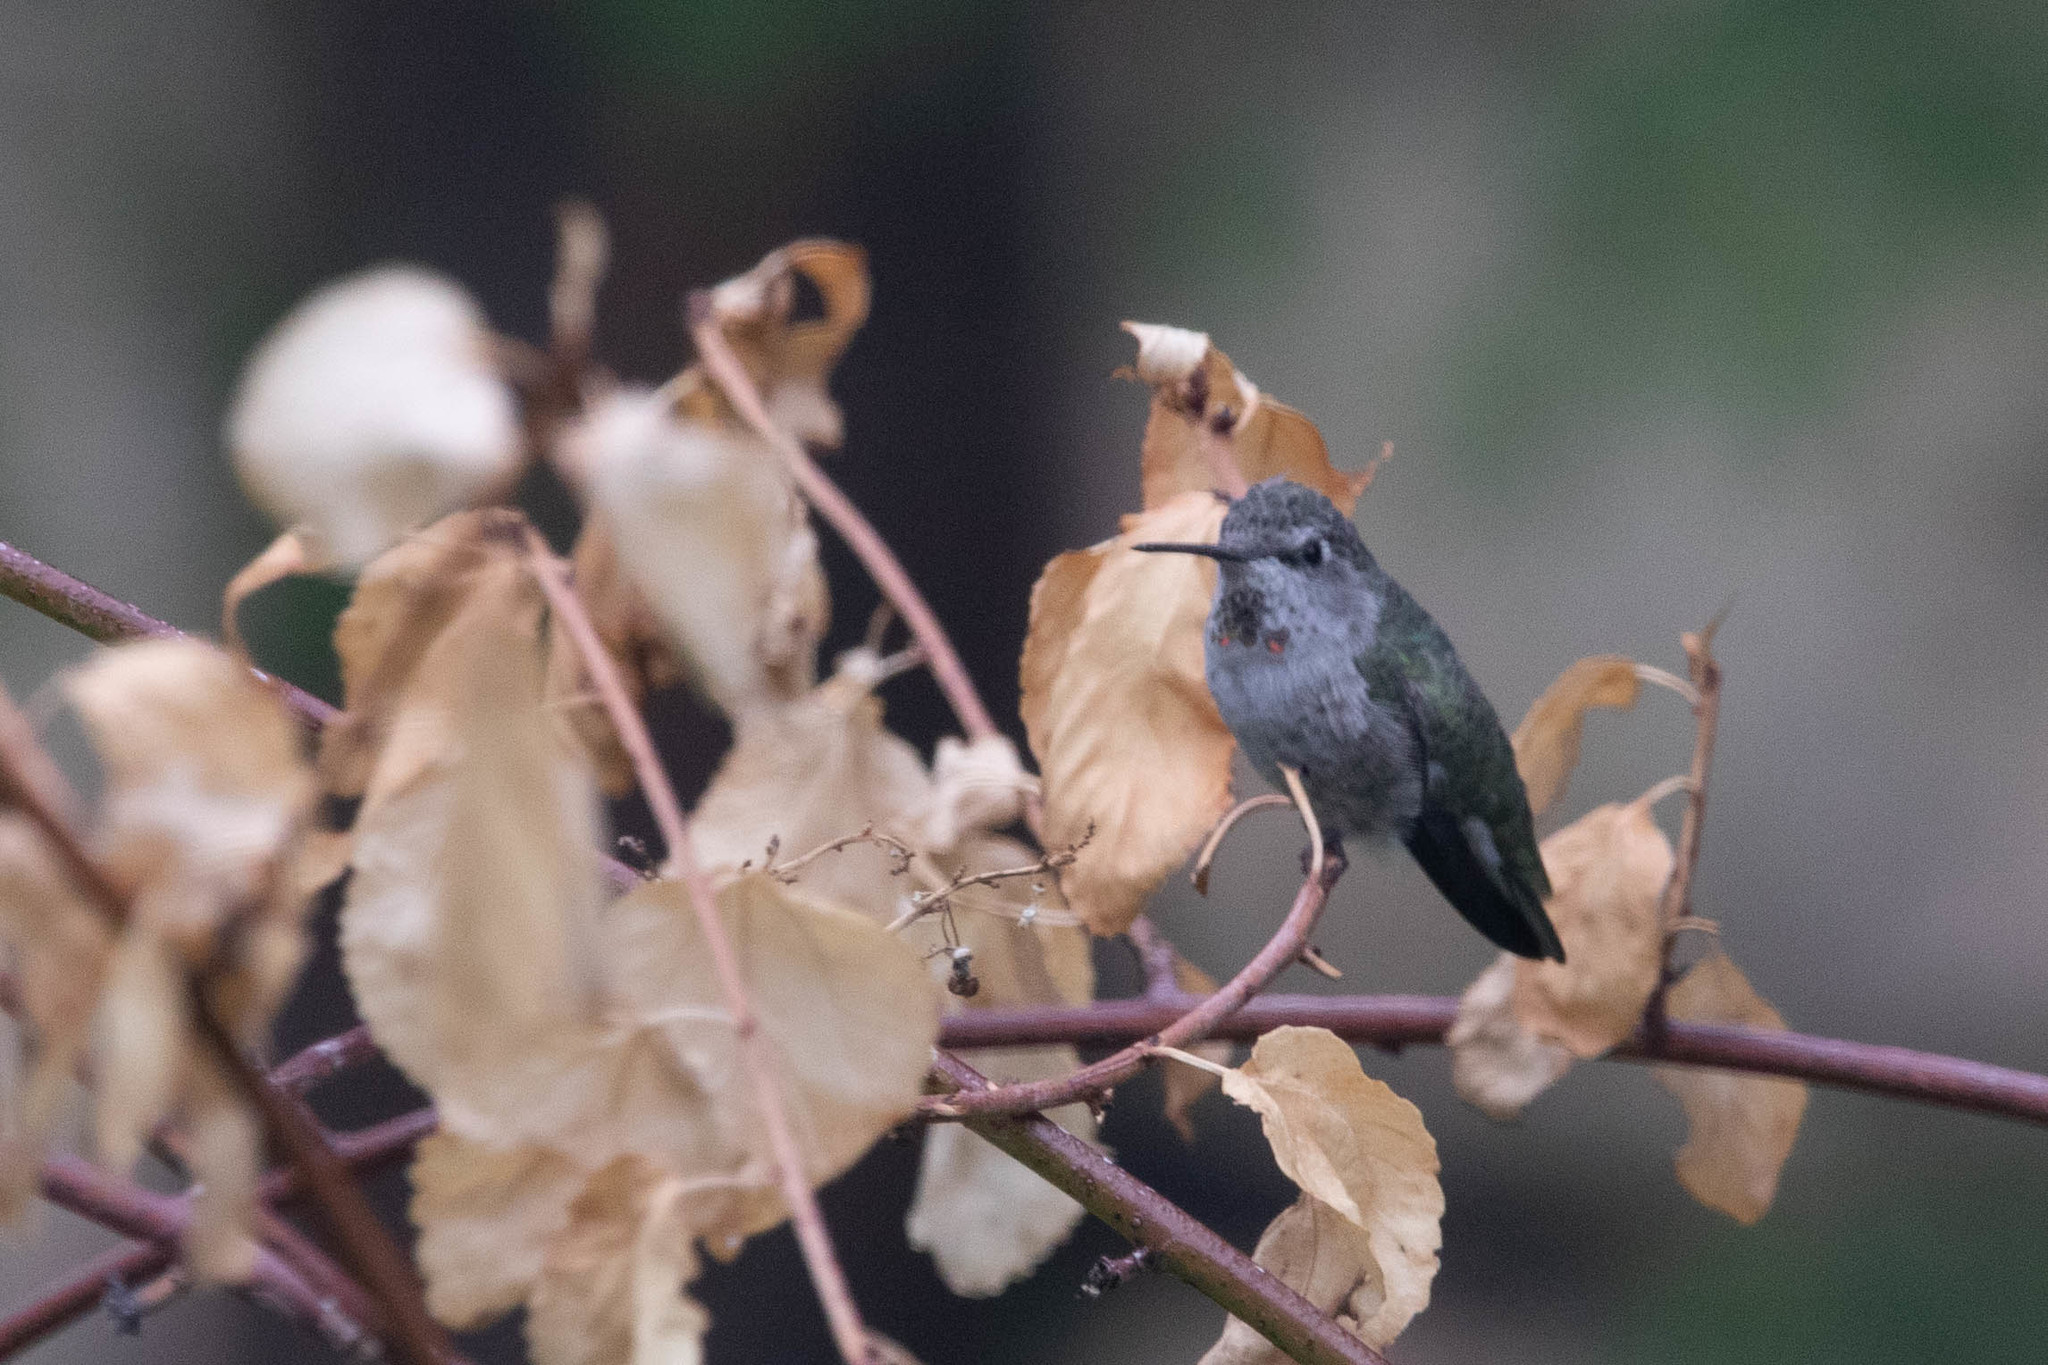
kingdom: Animalia
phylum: Chordata
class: Aves
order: Apodiformes
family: Trochilidae
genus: Calypte
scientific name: Calypte anna
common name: Anna's hummingbird
